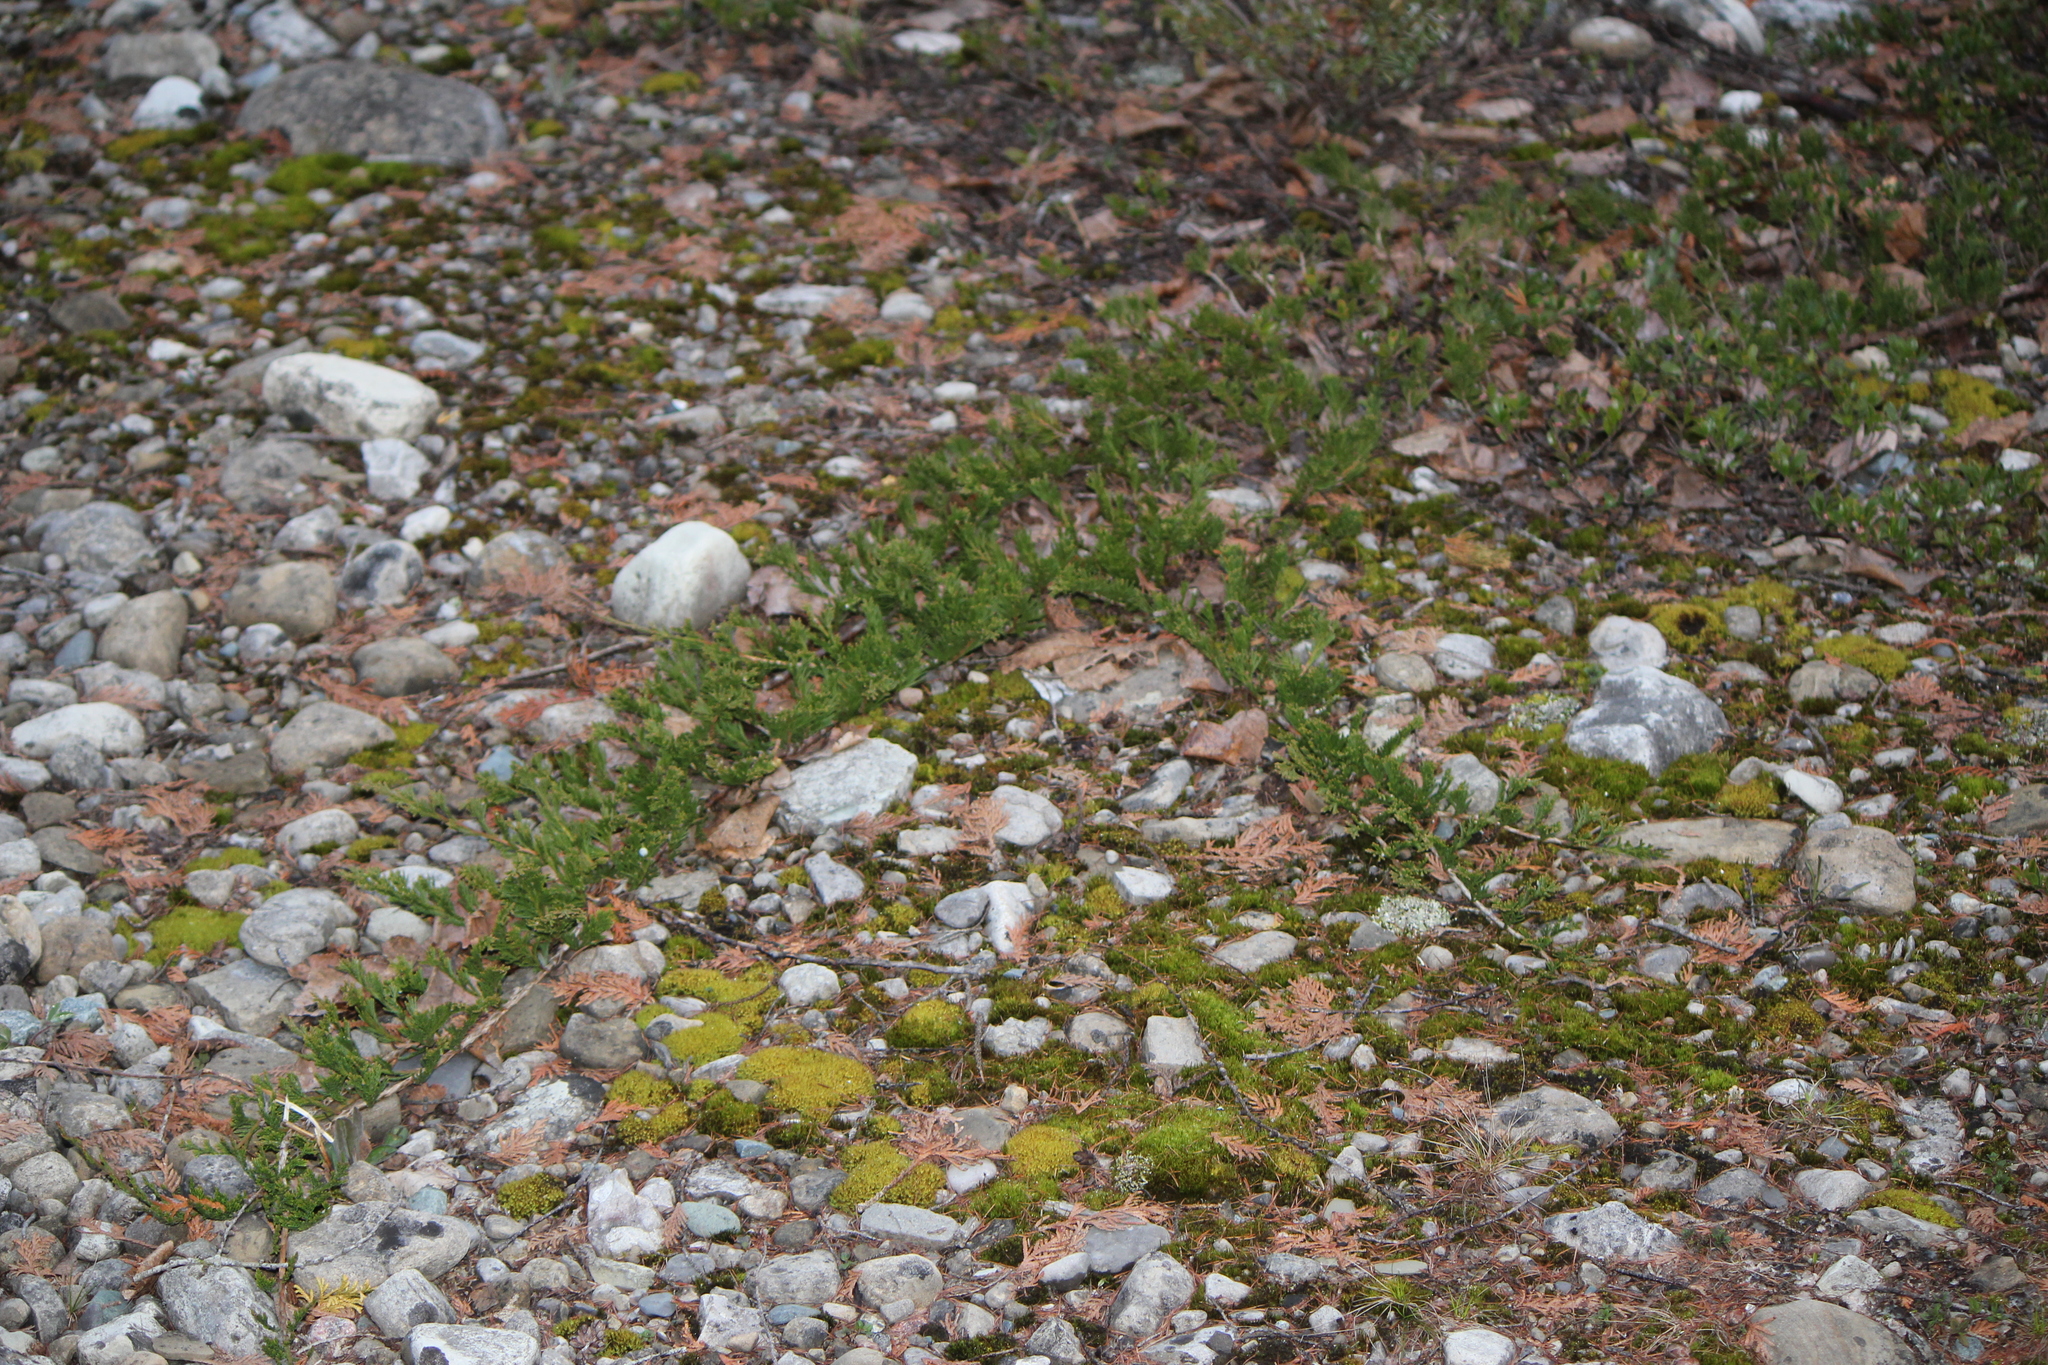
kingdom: Plantae
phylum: Tracheophyta
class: Pinopsida
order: Pinales
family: Cupressaceae
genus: Juniperus
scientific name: Juniperus horizontalis
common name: Creeping juniper
